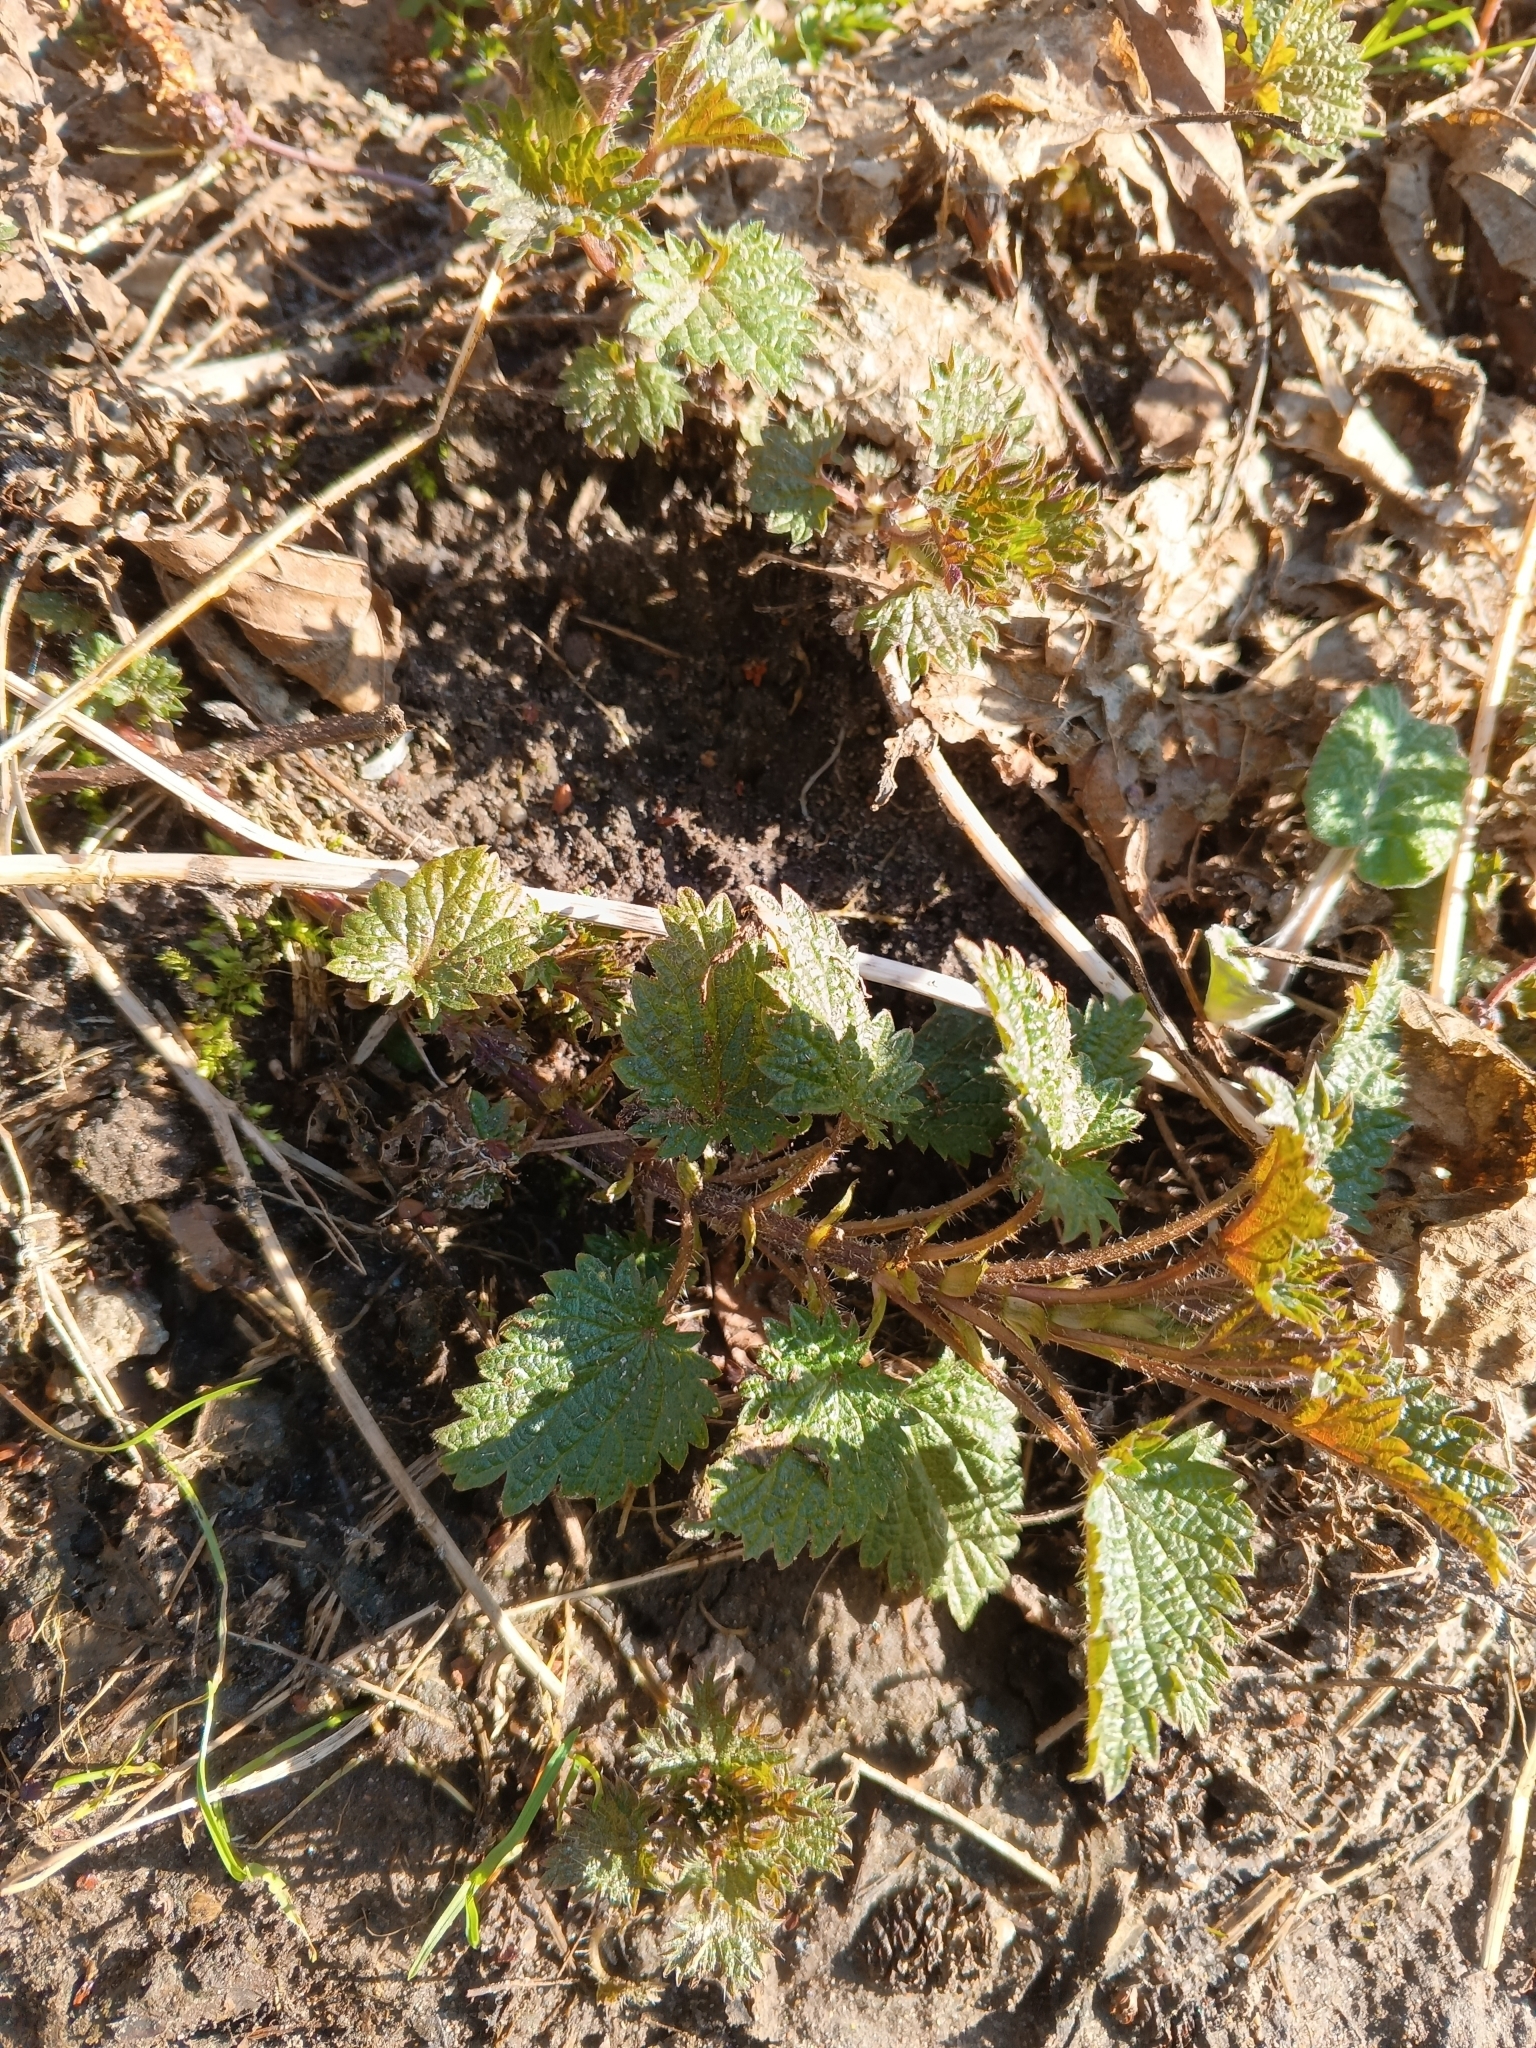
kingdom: Plantae
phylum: Tracheophyta
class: Magnoliopsida
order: Rosales
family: Urticaceae
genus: Urtica
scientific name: Urtica dioica
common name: Common nettle
